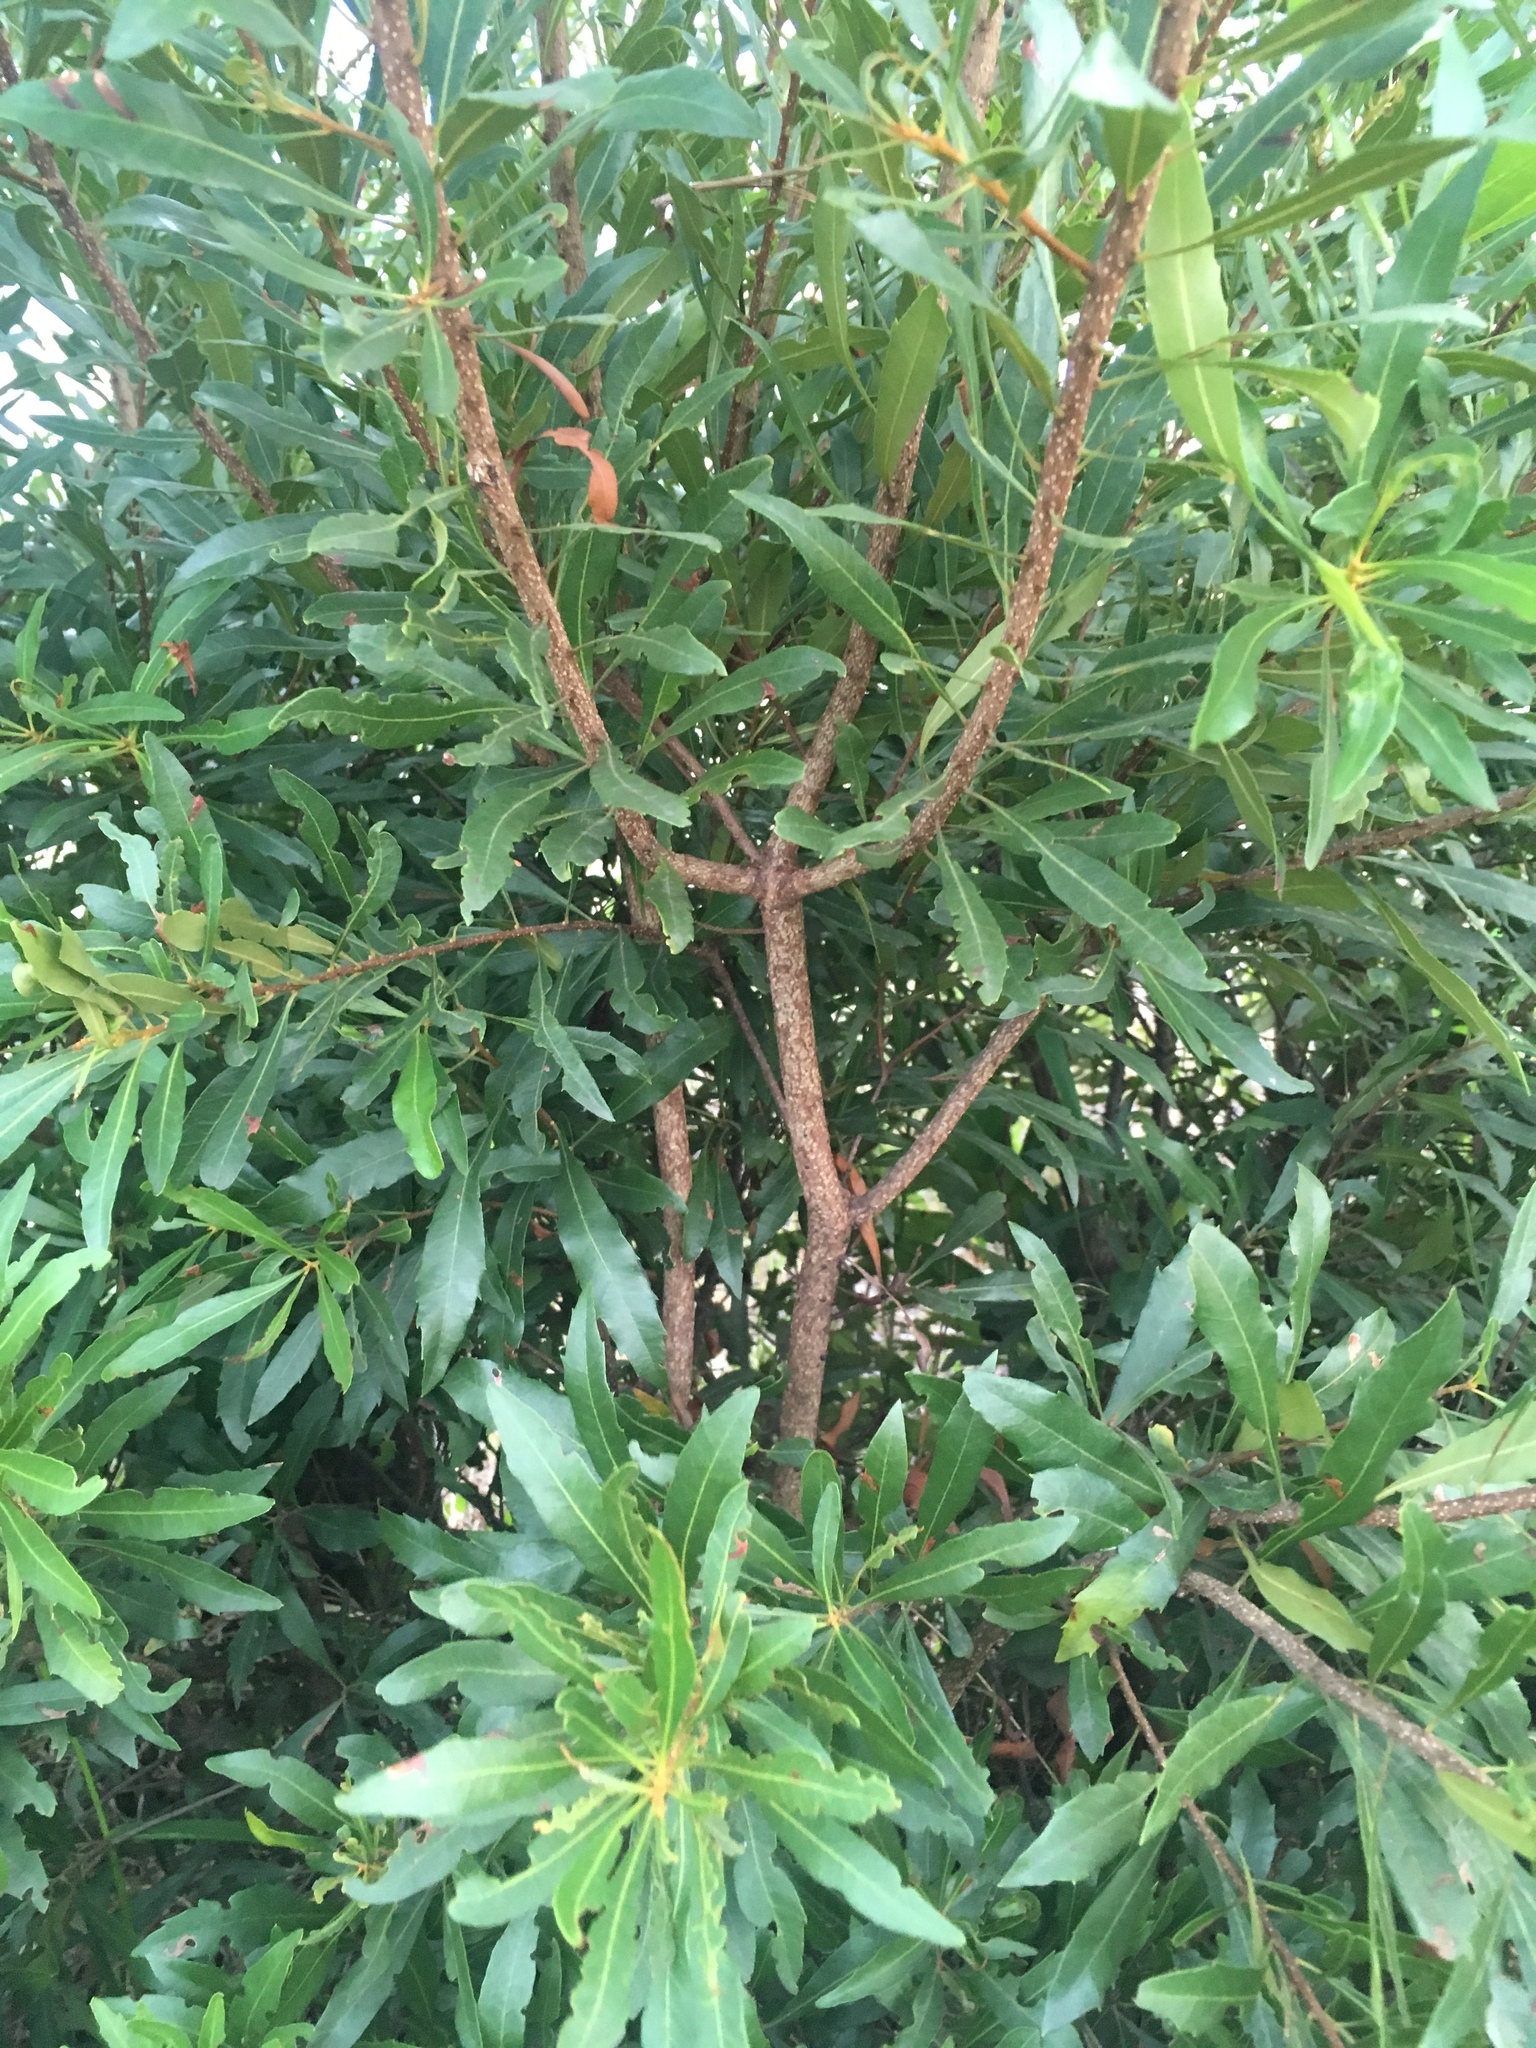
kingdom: Plantae
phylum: Tracheophyta
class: Magnoliopsida
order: Fagales
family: Myricaceae
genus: Morella
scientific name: Morella cerifera
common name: Wax myrtle
